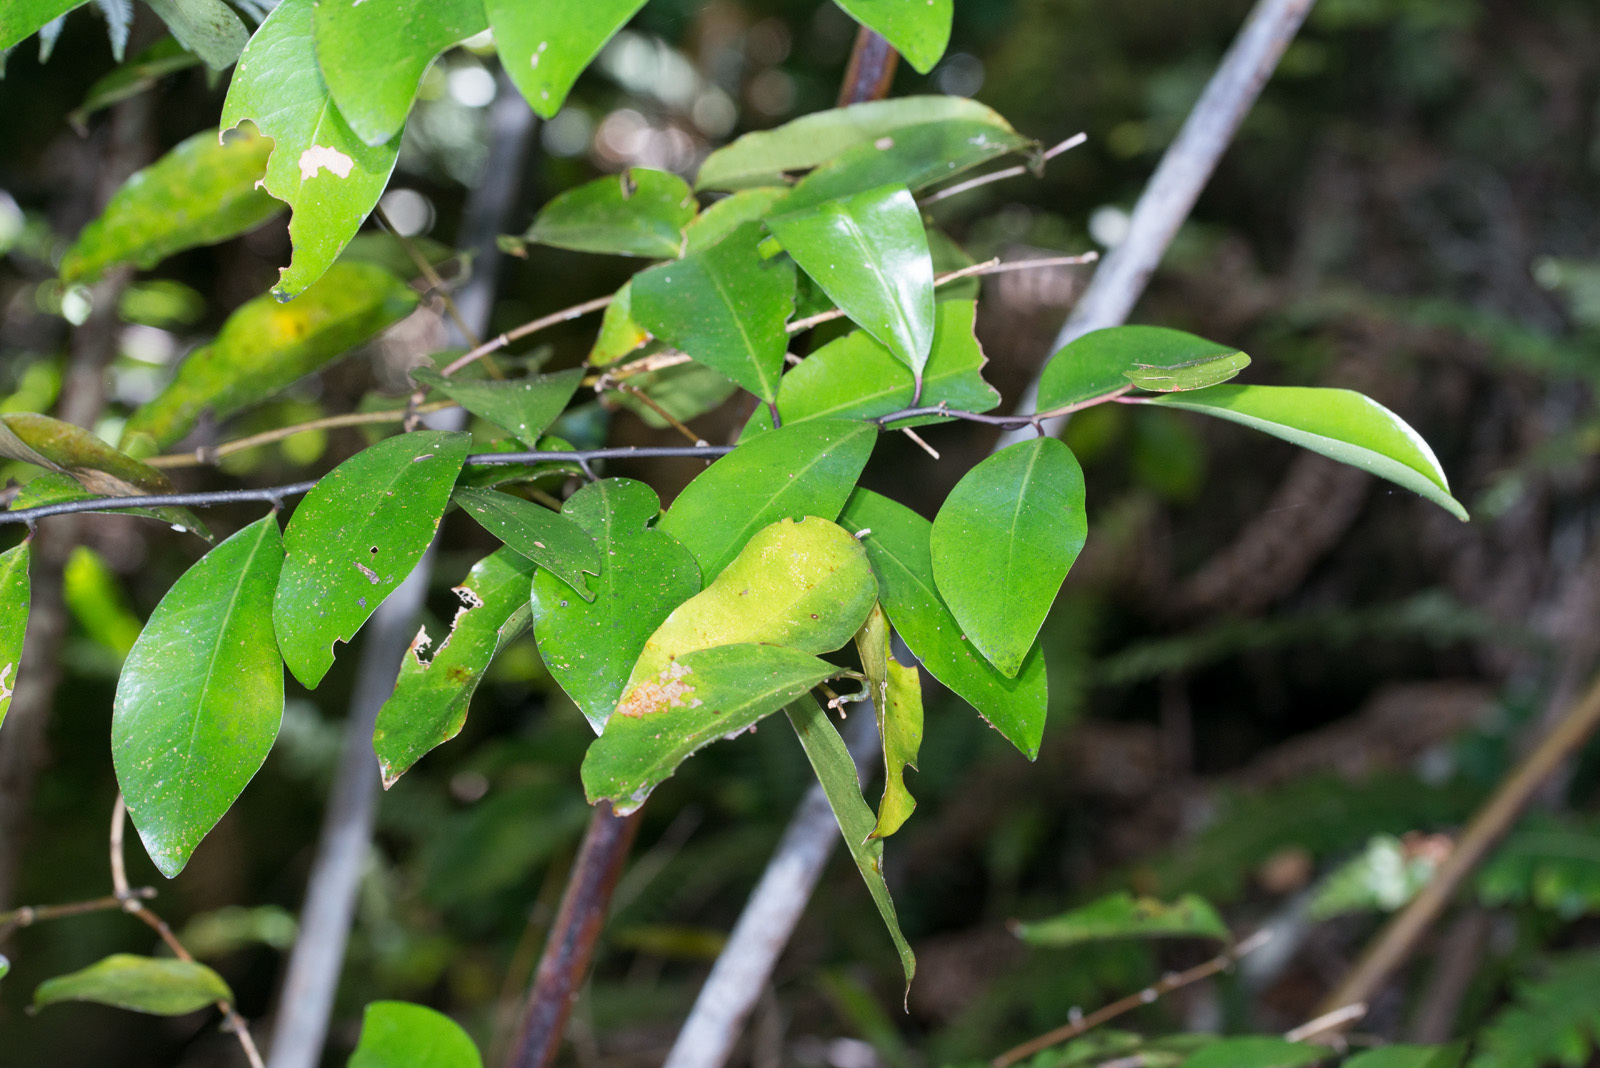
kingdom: Plantae
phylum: Tracheophyta
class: Magnoliopsida
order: Canellales
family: Winteraceae
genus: Pseudowintera
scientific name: Pseudowintera axillaris
